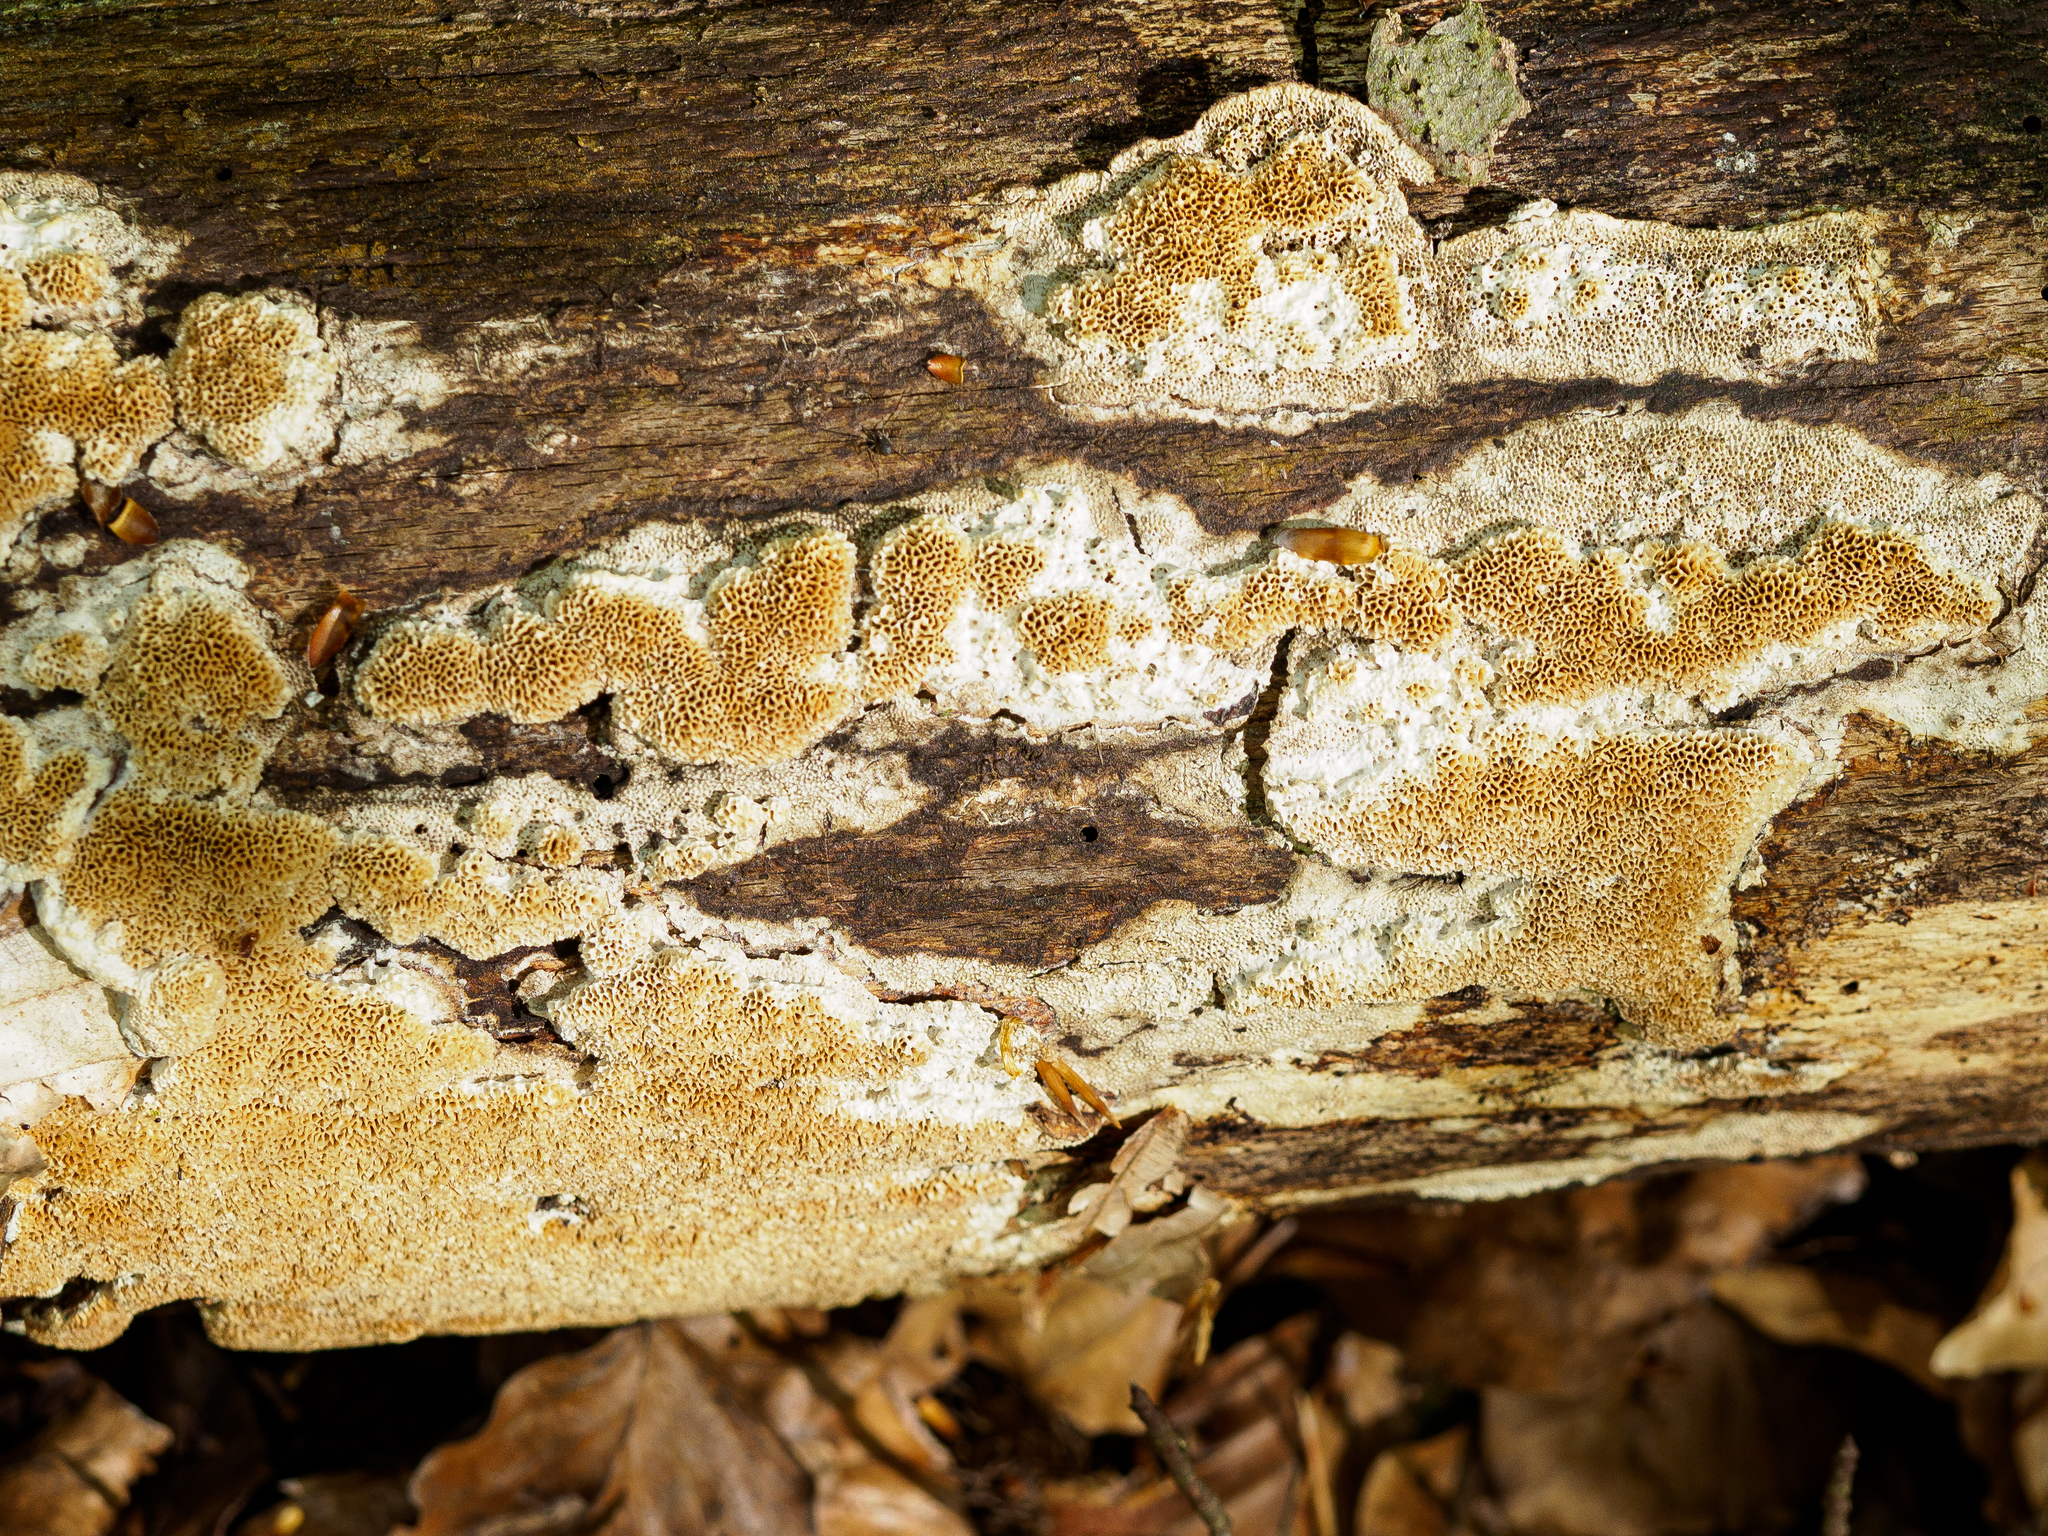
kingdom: Fungi
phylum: Basidiomycota
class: Agaricomycetes
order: Polyporales
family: Irpicaceae
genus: Trametopsis
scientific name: Trametopsis cervina
